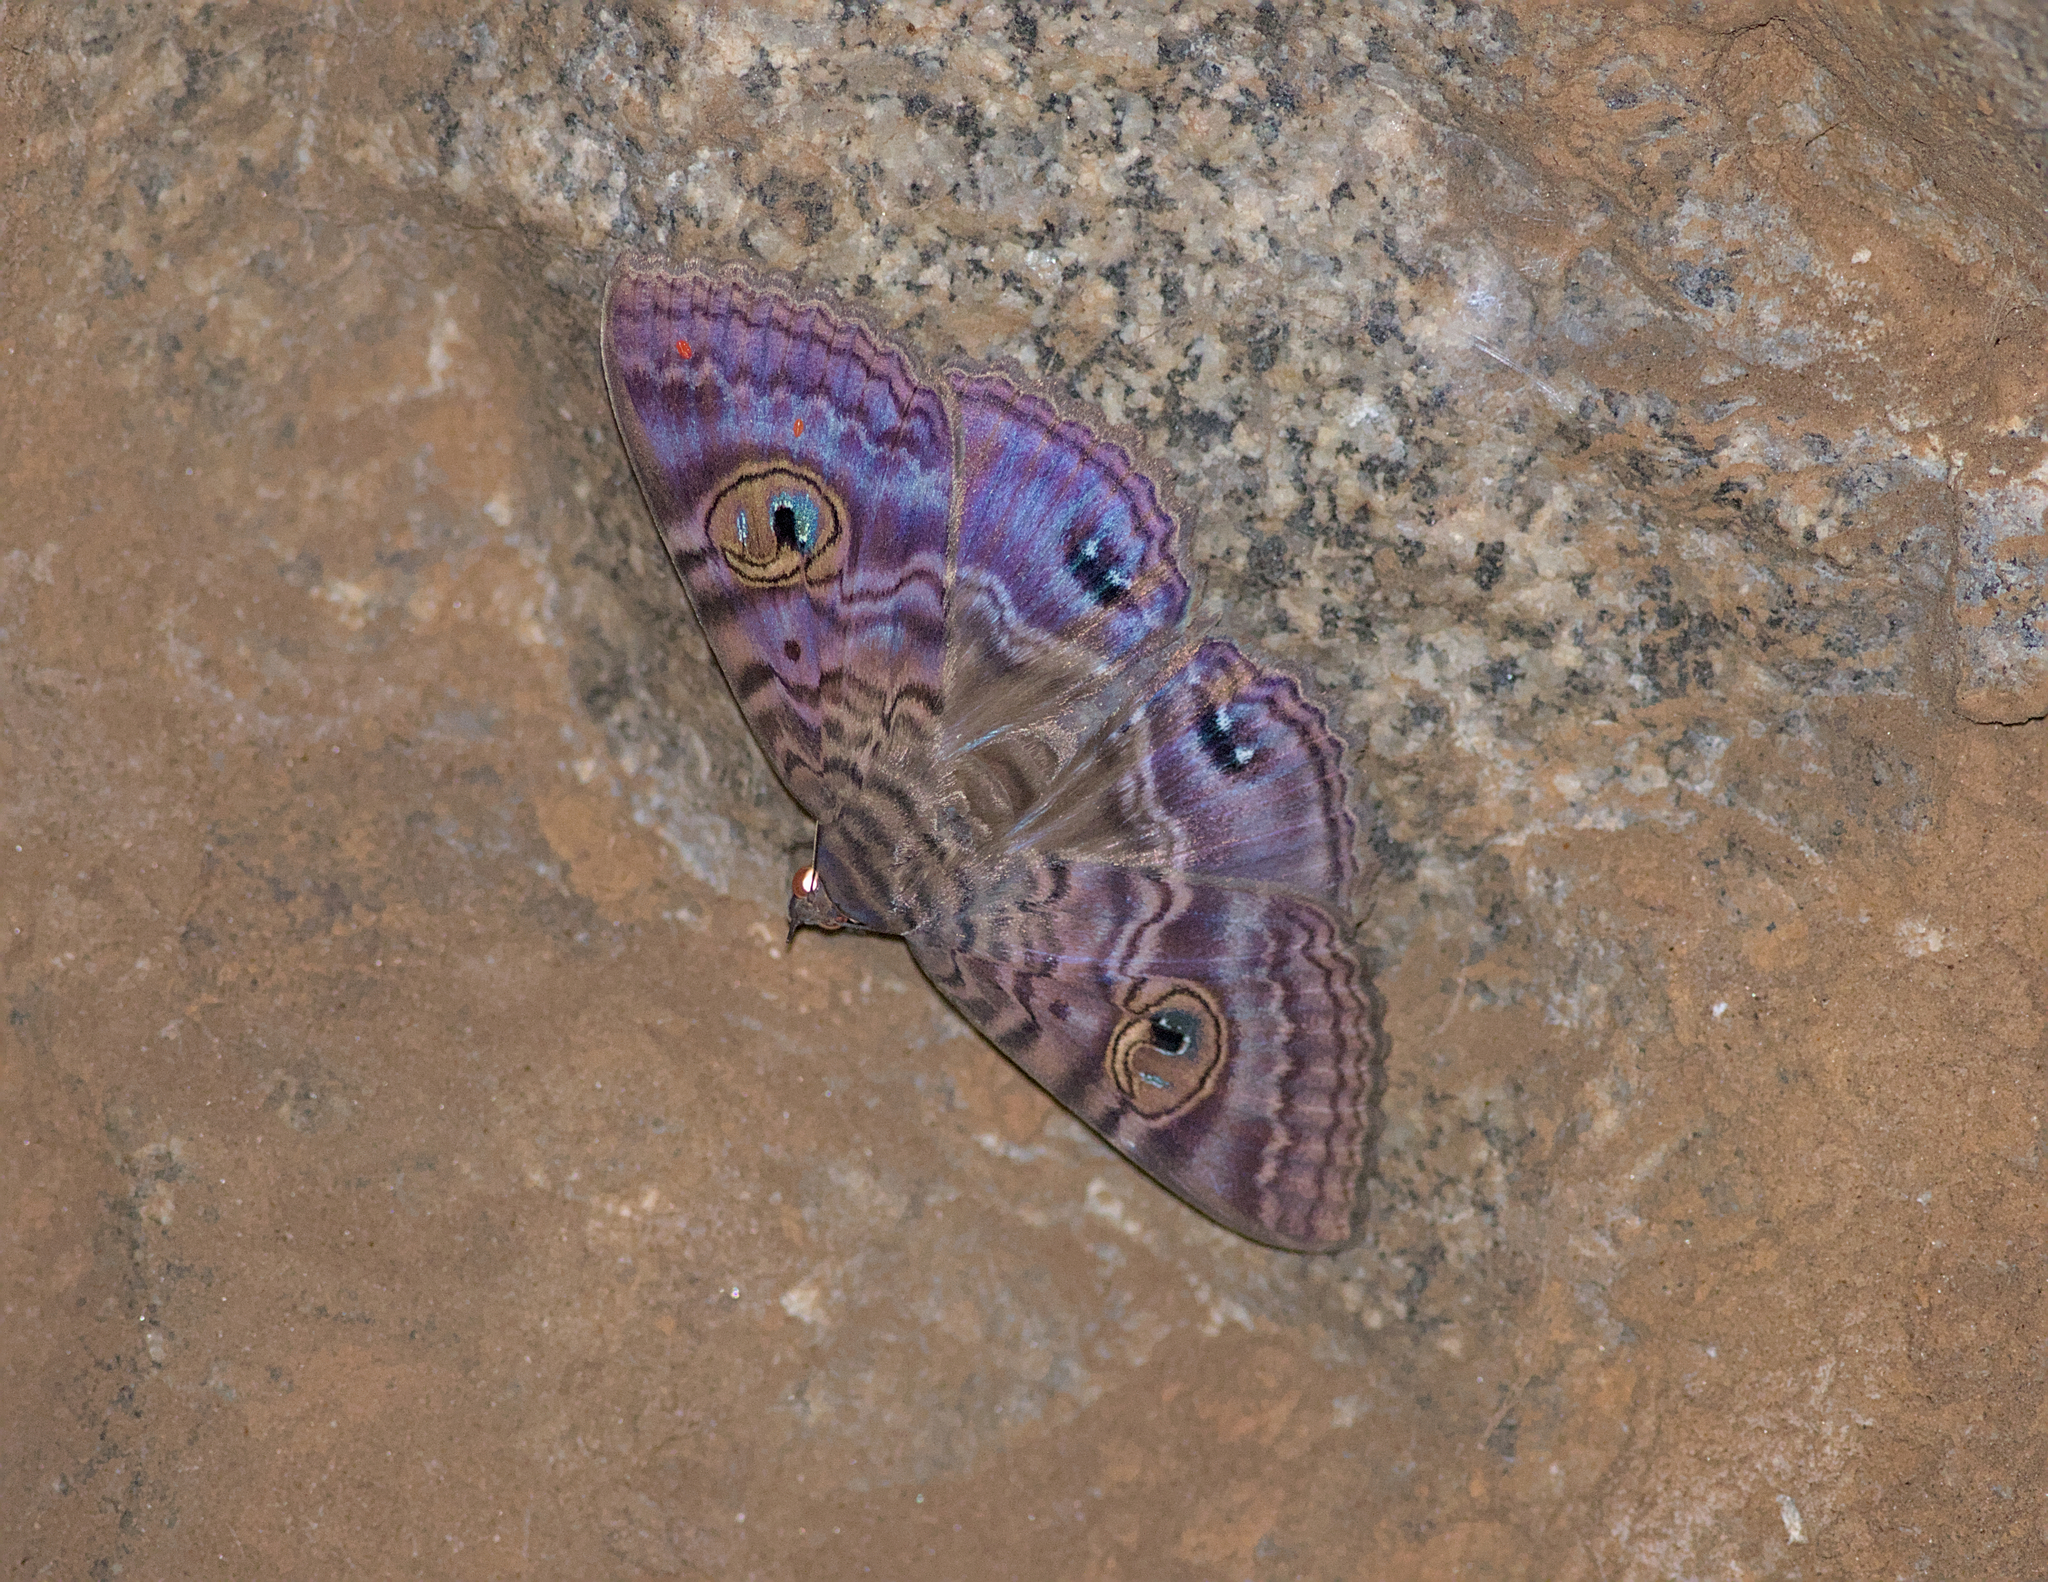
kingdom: Animalia
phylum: Arthropoda
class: Insecta
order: Lepidoptera
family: Erebidae
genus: Speiredonia
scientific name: Speiredonia spectans
